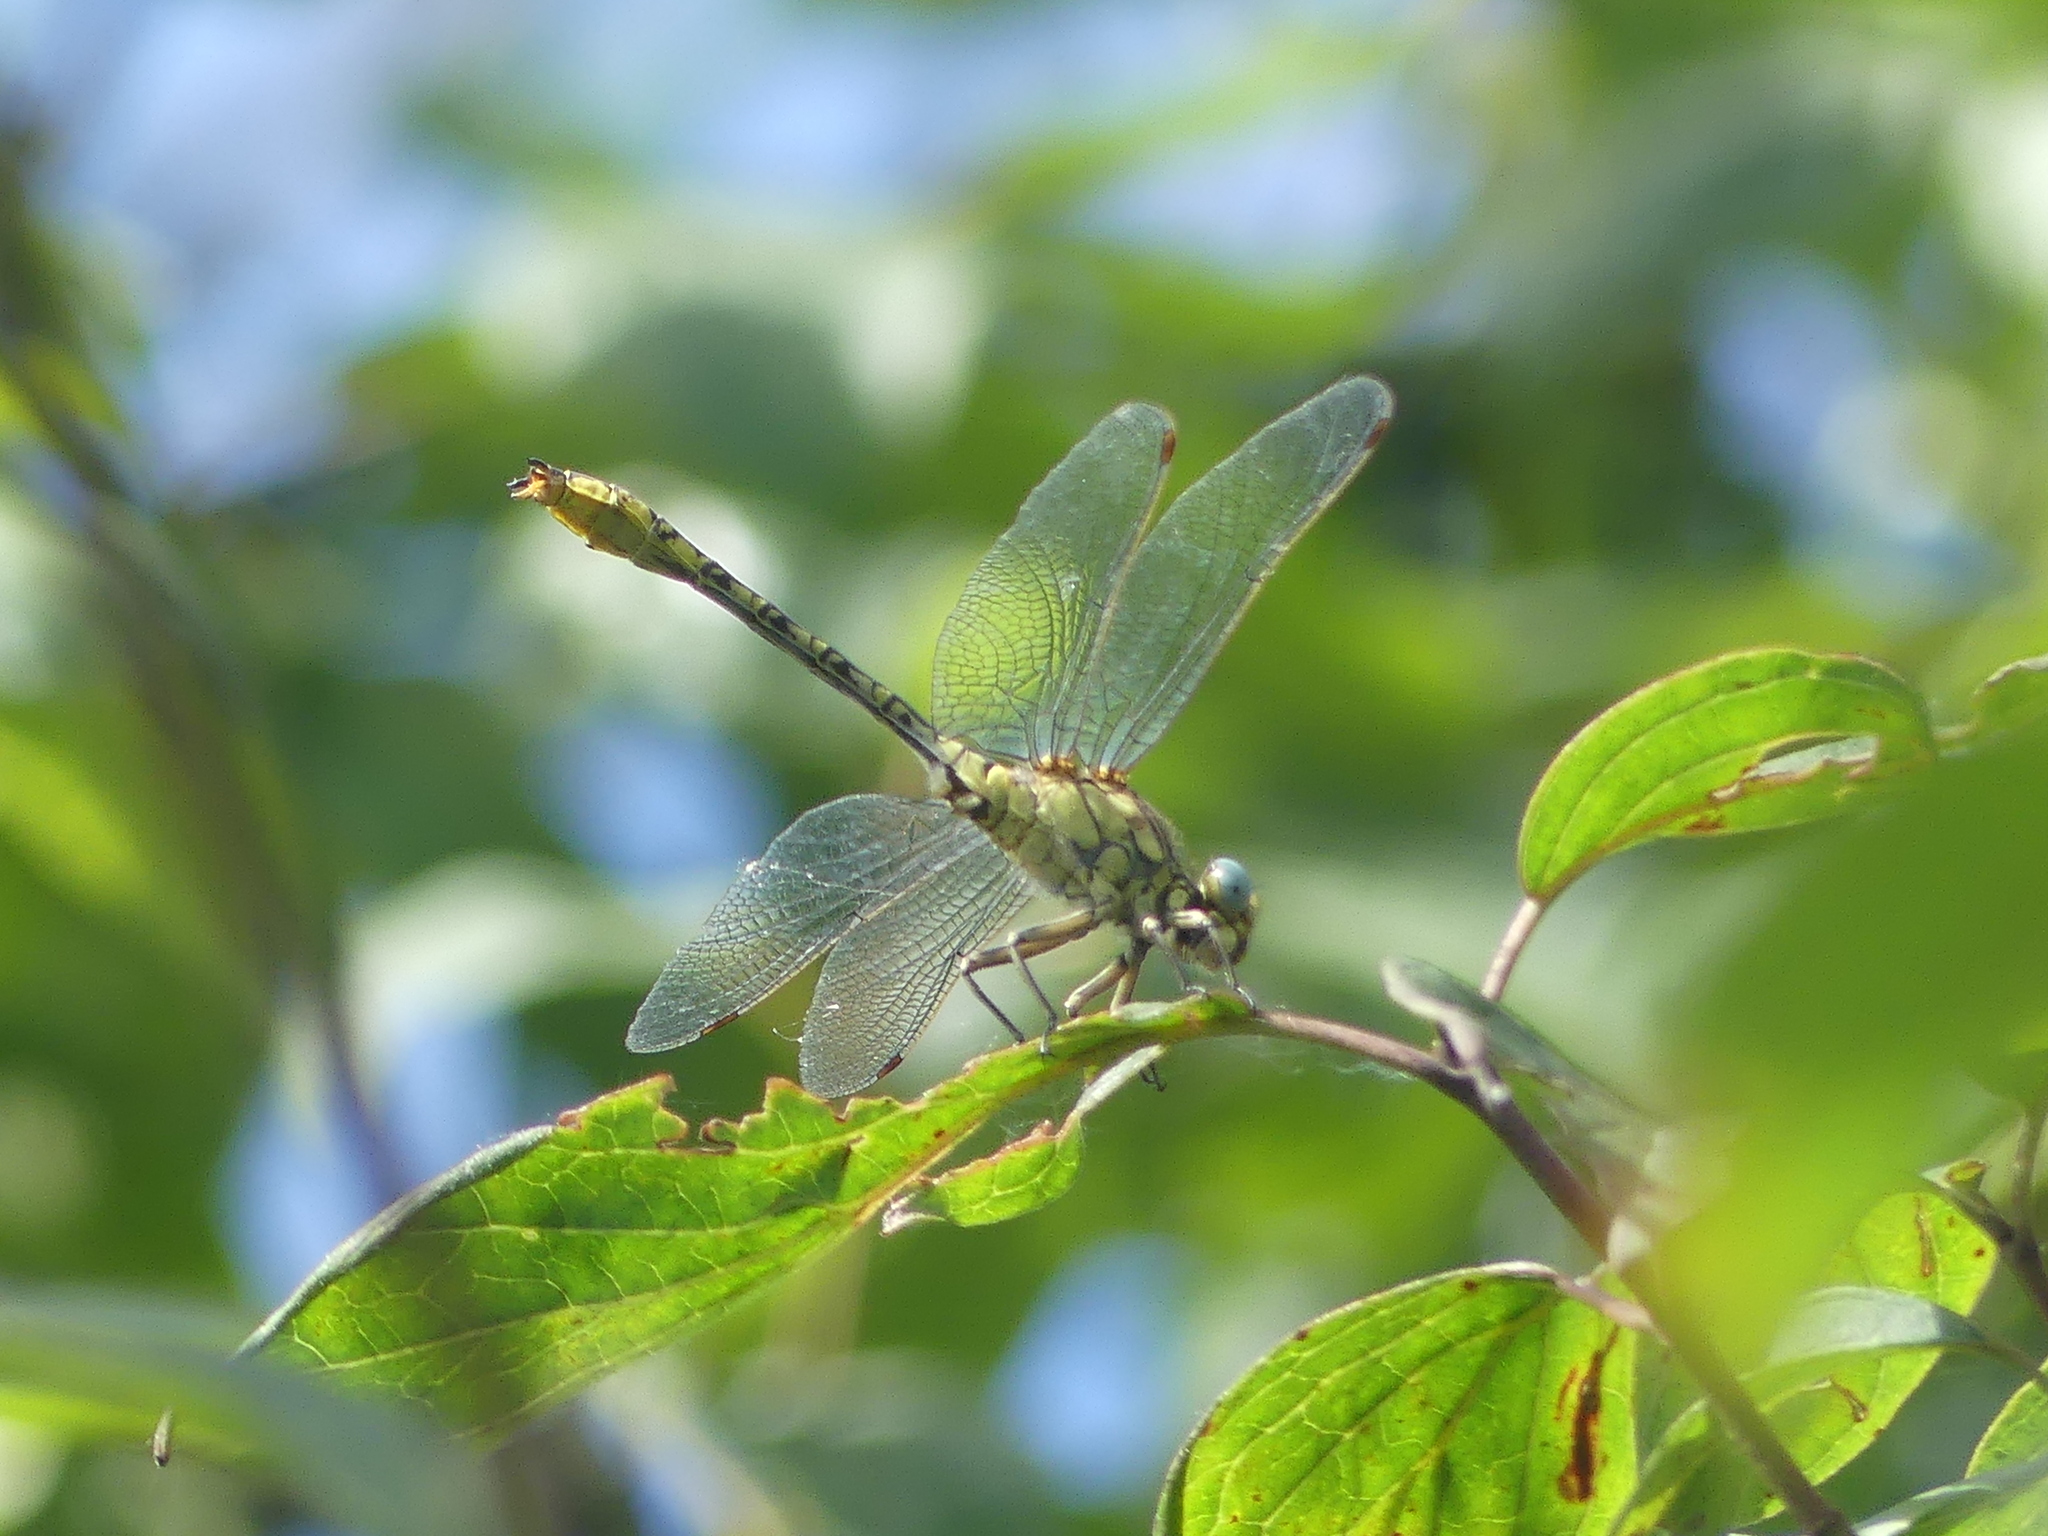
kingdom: Animalia
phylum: Arthropoda
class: Insecta
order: Odonata
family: Gomphidae
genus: Gomphus
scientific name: Gomphus simillimus
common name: Yellow clubtail
